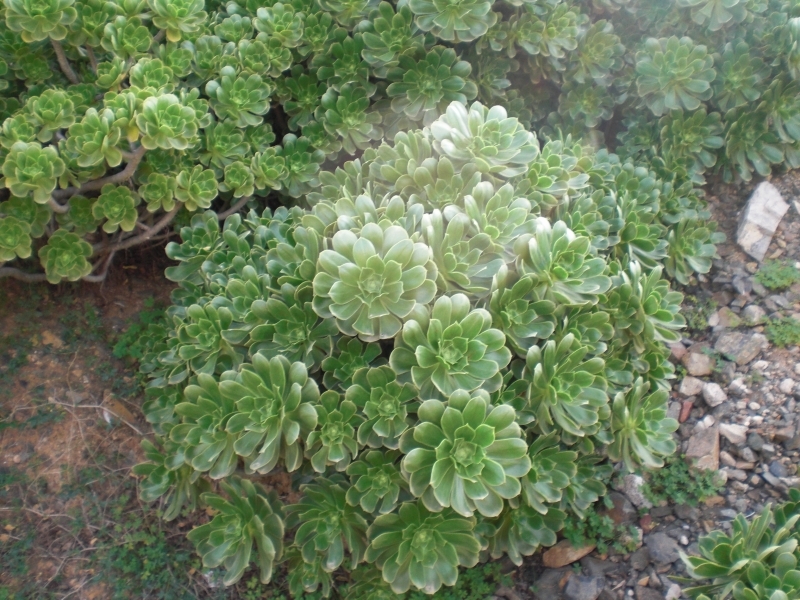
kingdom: Plantae
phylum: Tracheophyta
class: Magnoliopsida
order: Saxifragales
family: Crassulaceae
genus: Aeonium
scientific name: Aeonium balsamiferum
